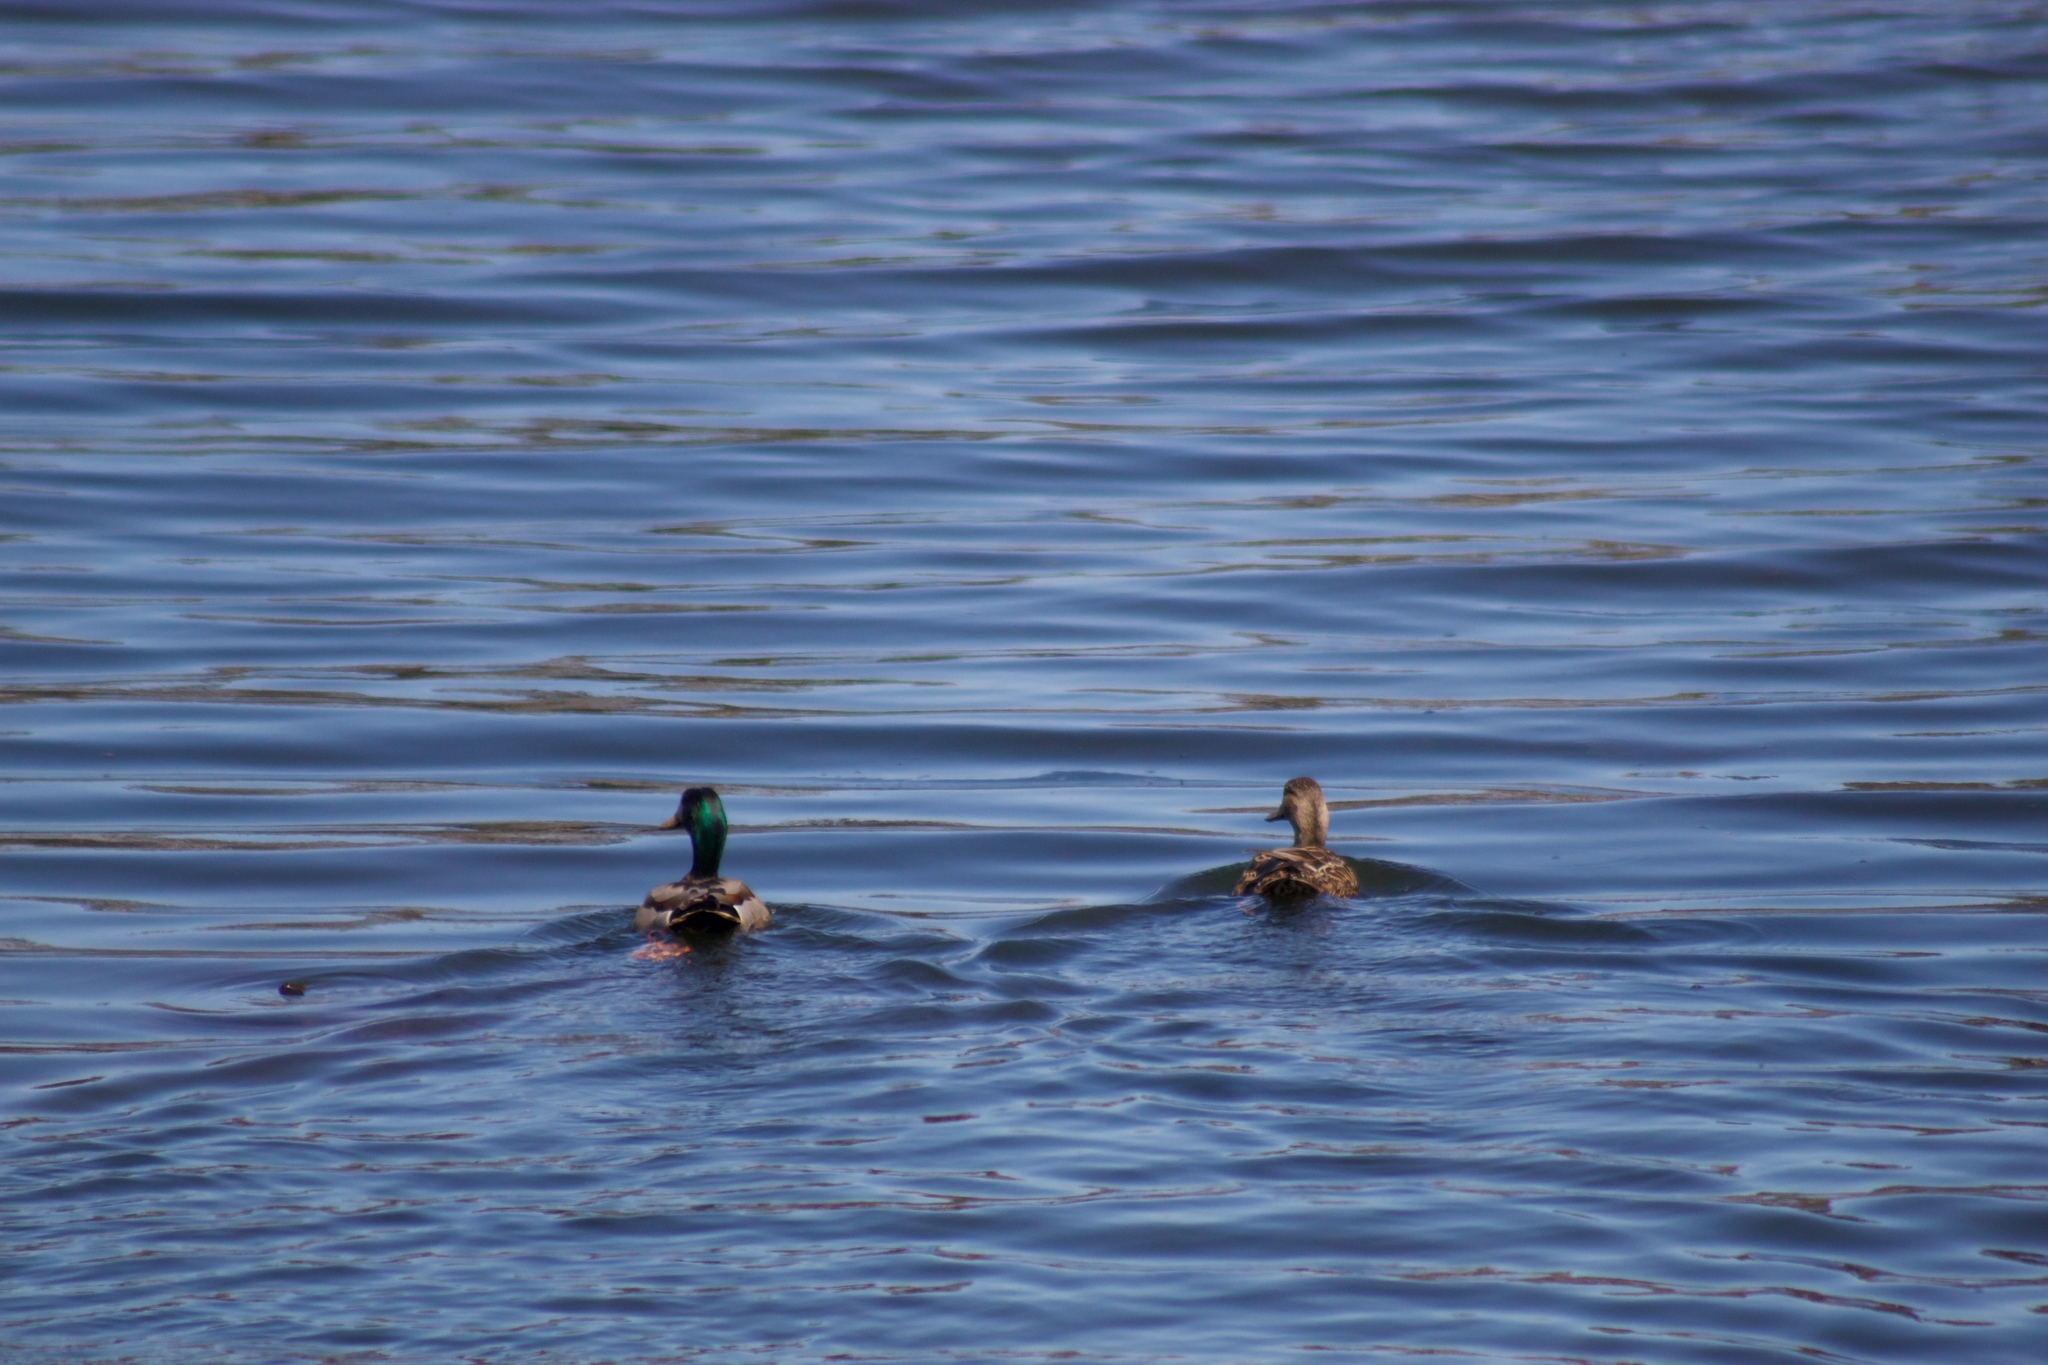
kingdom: Animalia
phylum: Chordata
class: Aves
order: Anseriformes
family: Anatidae
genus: Anas
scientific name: Anas platyrhynchos
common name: Mallard
